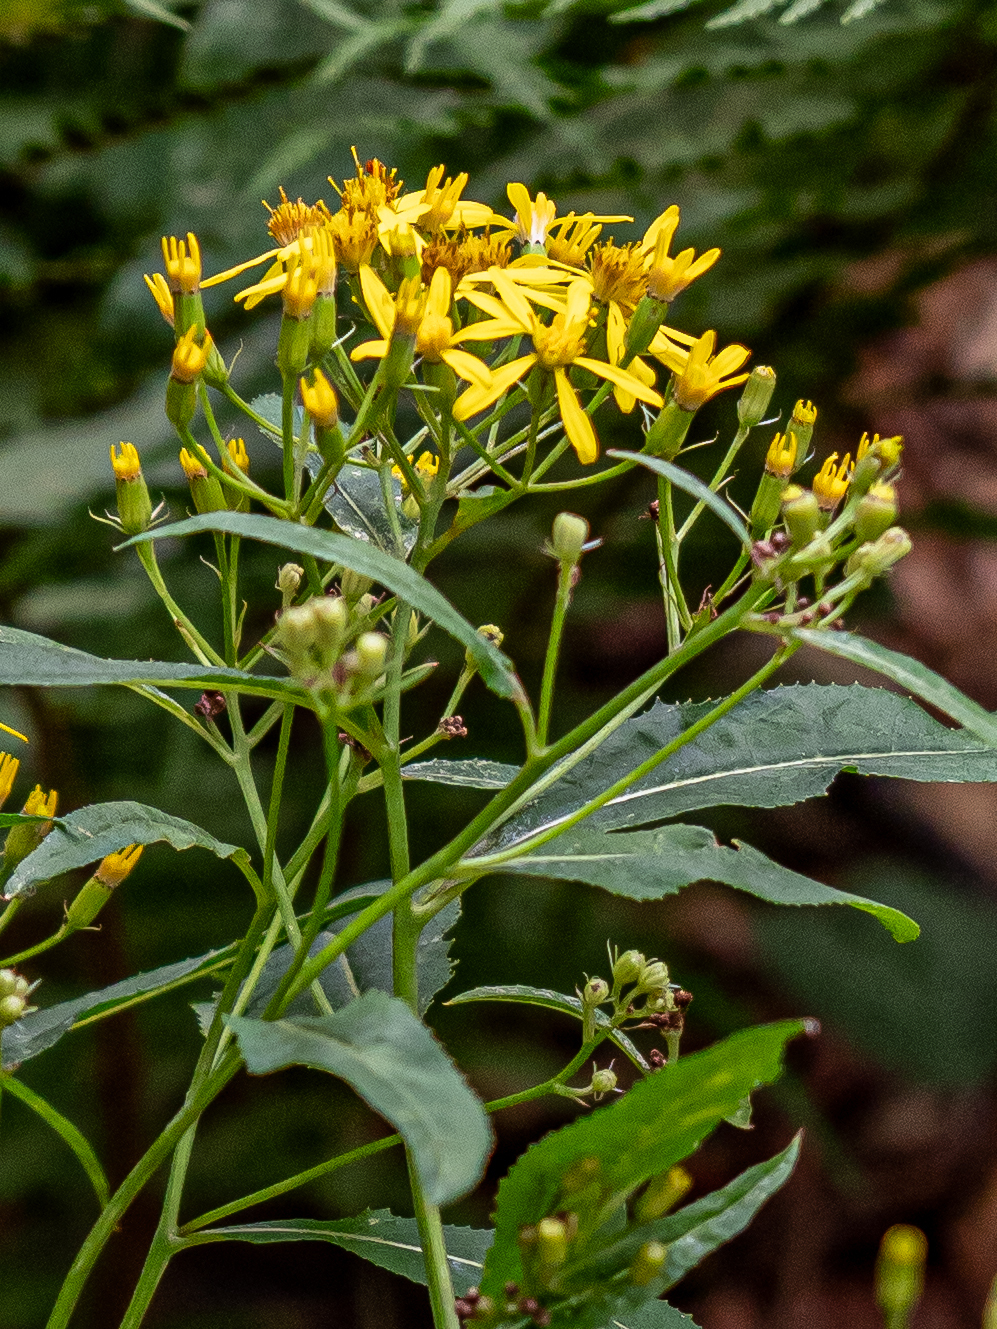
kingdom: Plantae
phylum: Tracheophyta
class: Magnoliopsida
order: Asterales
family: Asteraceae
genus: Senecio
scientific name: Senecio ovatus
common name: Wood ragwort
